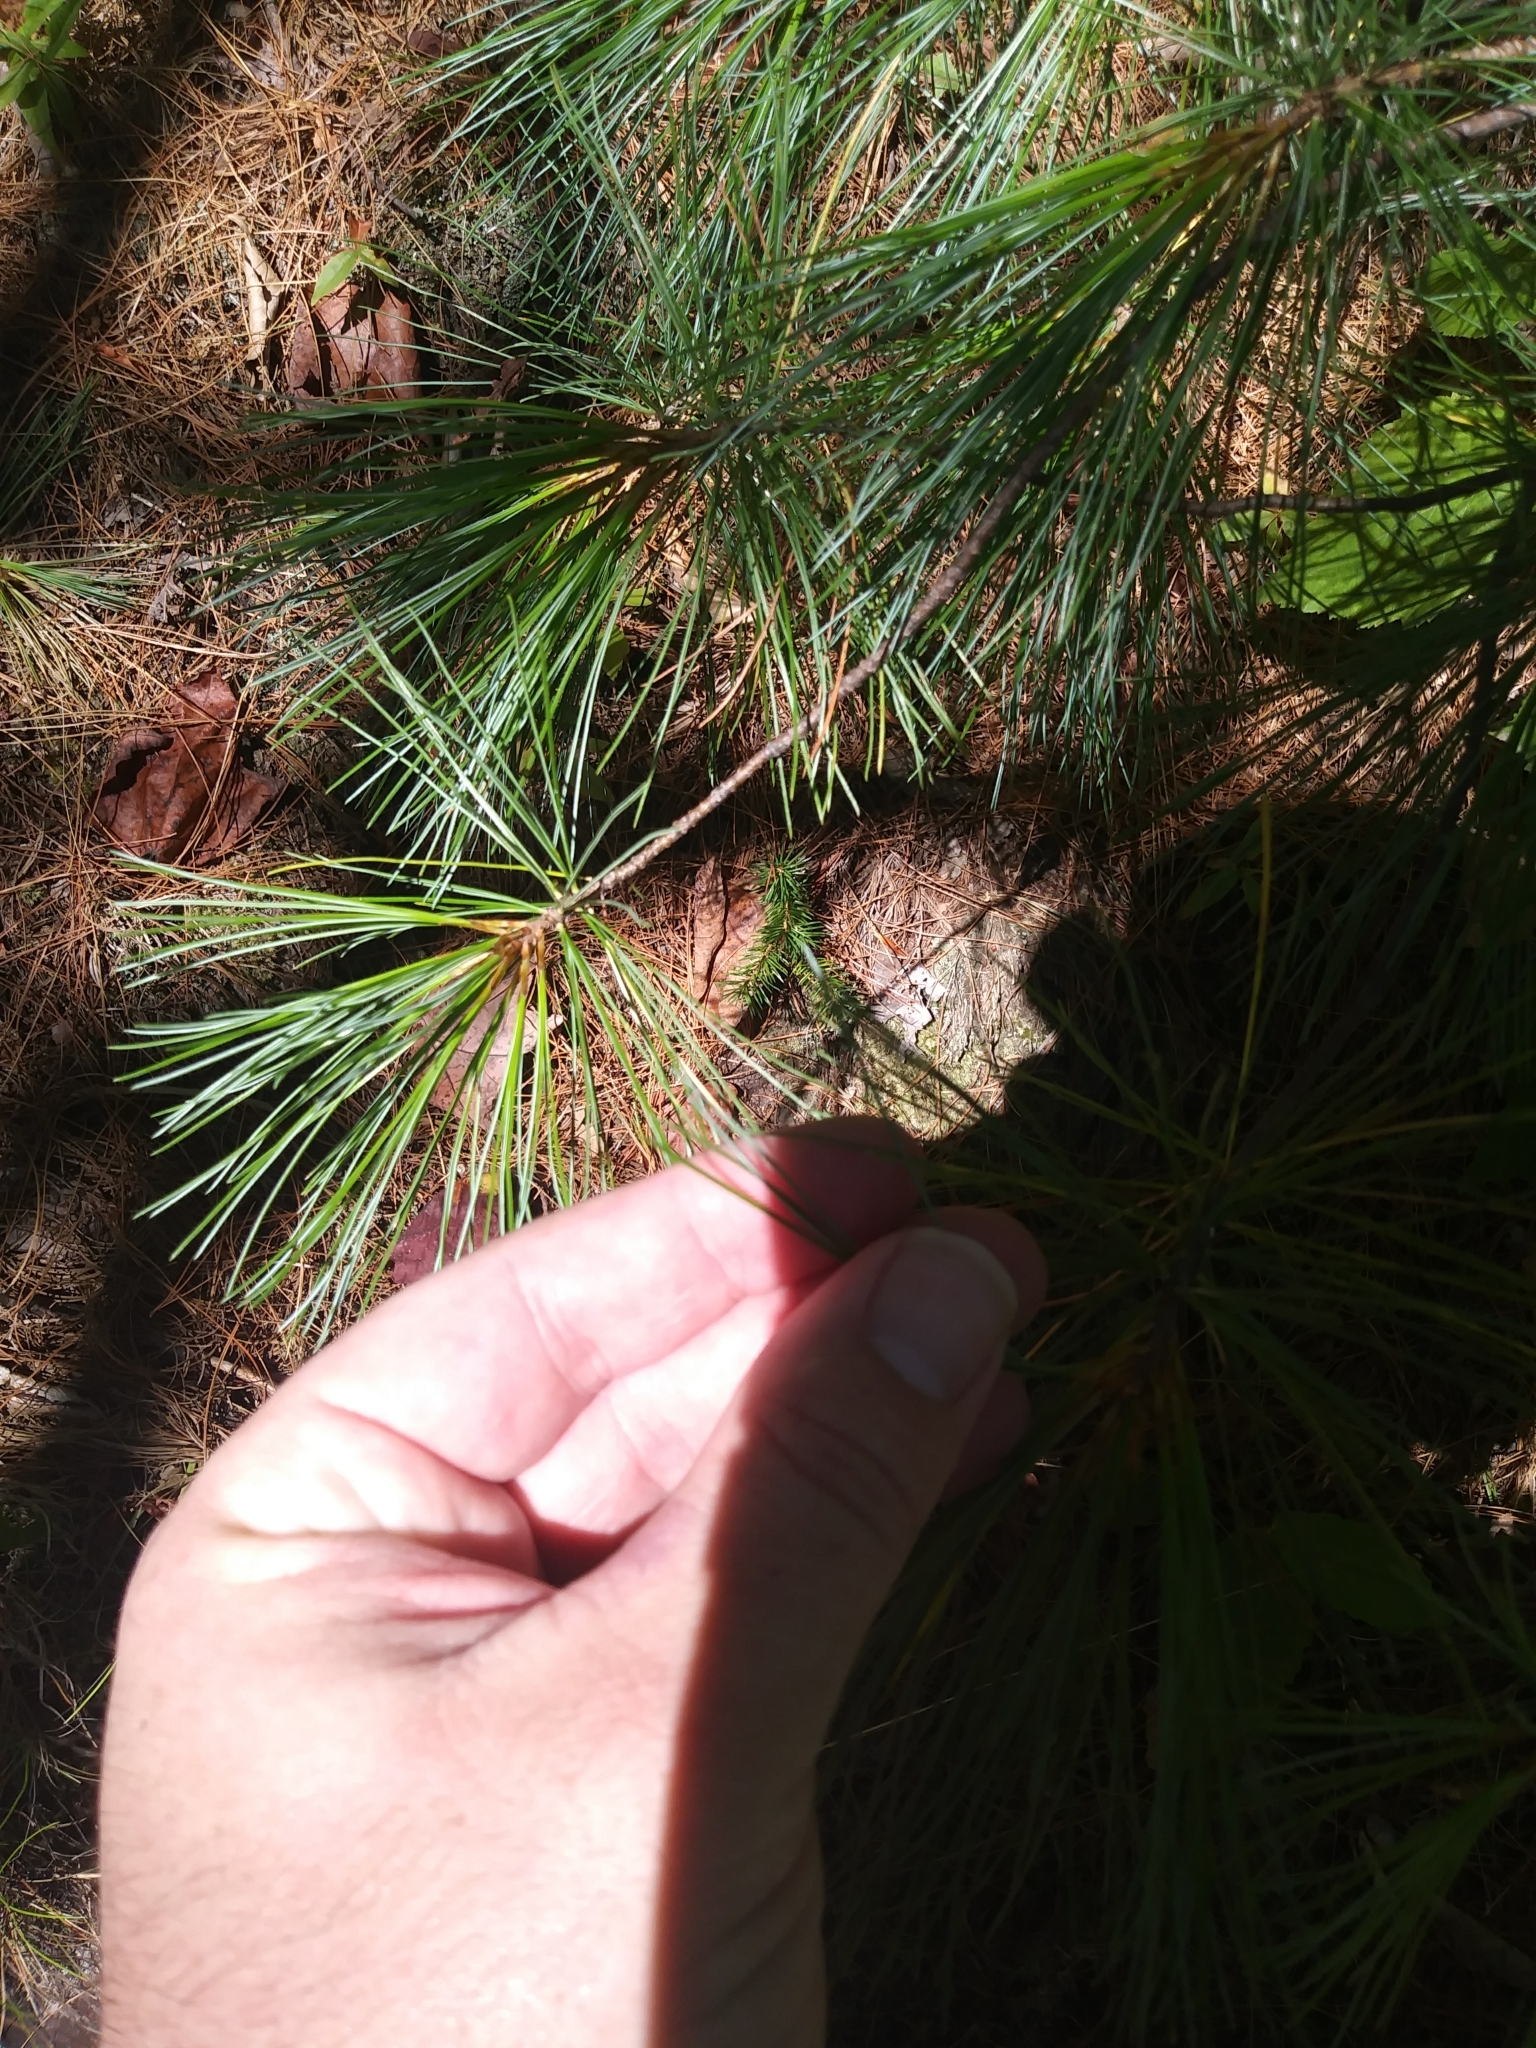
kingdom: Plantae
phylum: Tracheophyta
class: Pinopsida
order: Pinales
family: Pinaceae
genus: Pinus
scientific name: Pinus strobus
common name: Weymouth pine
